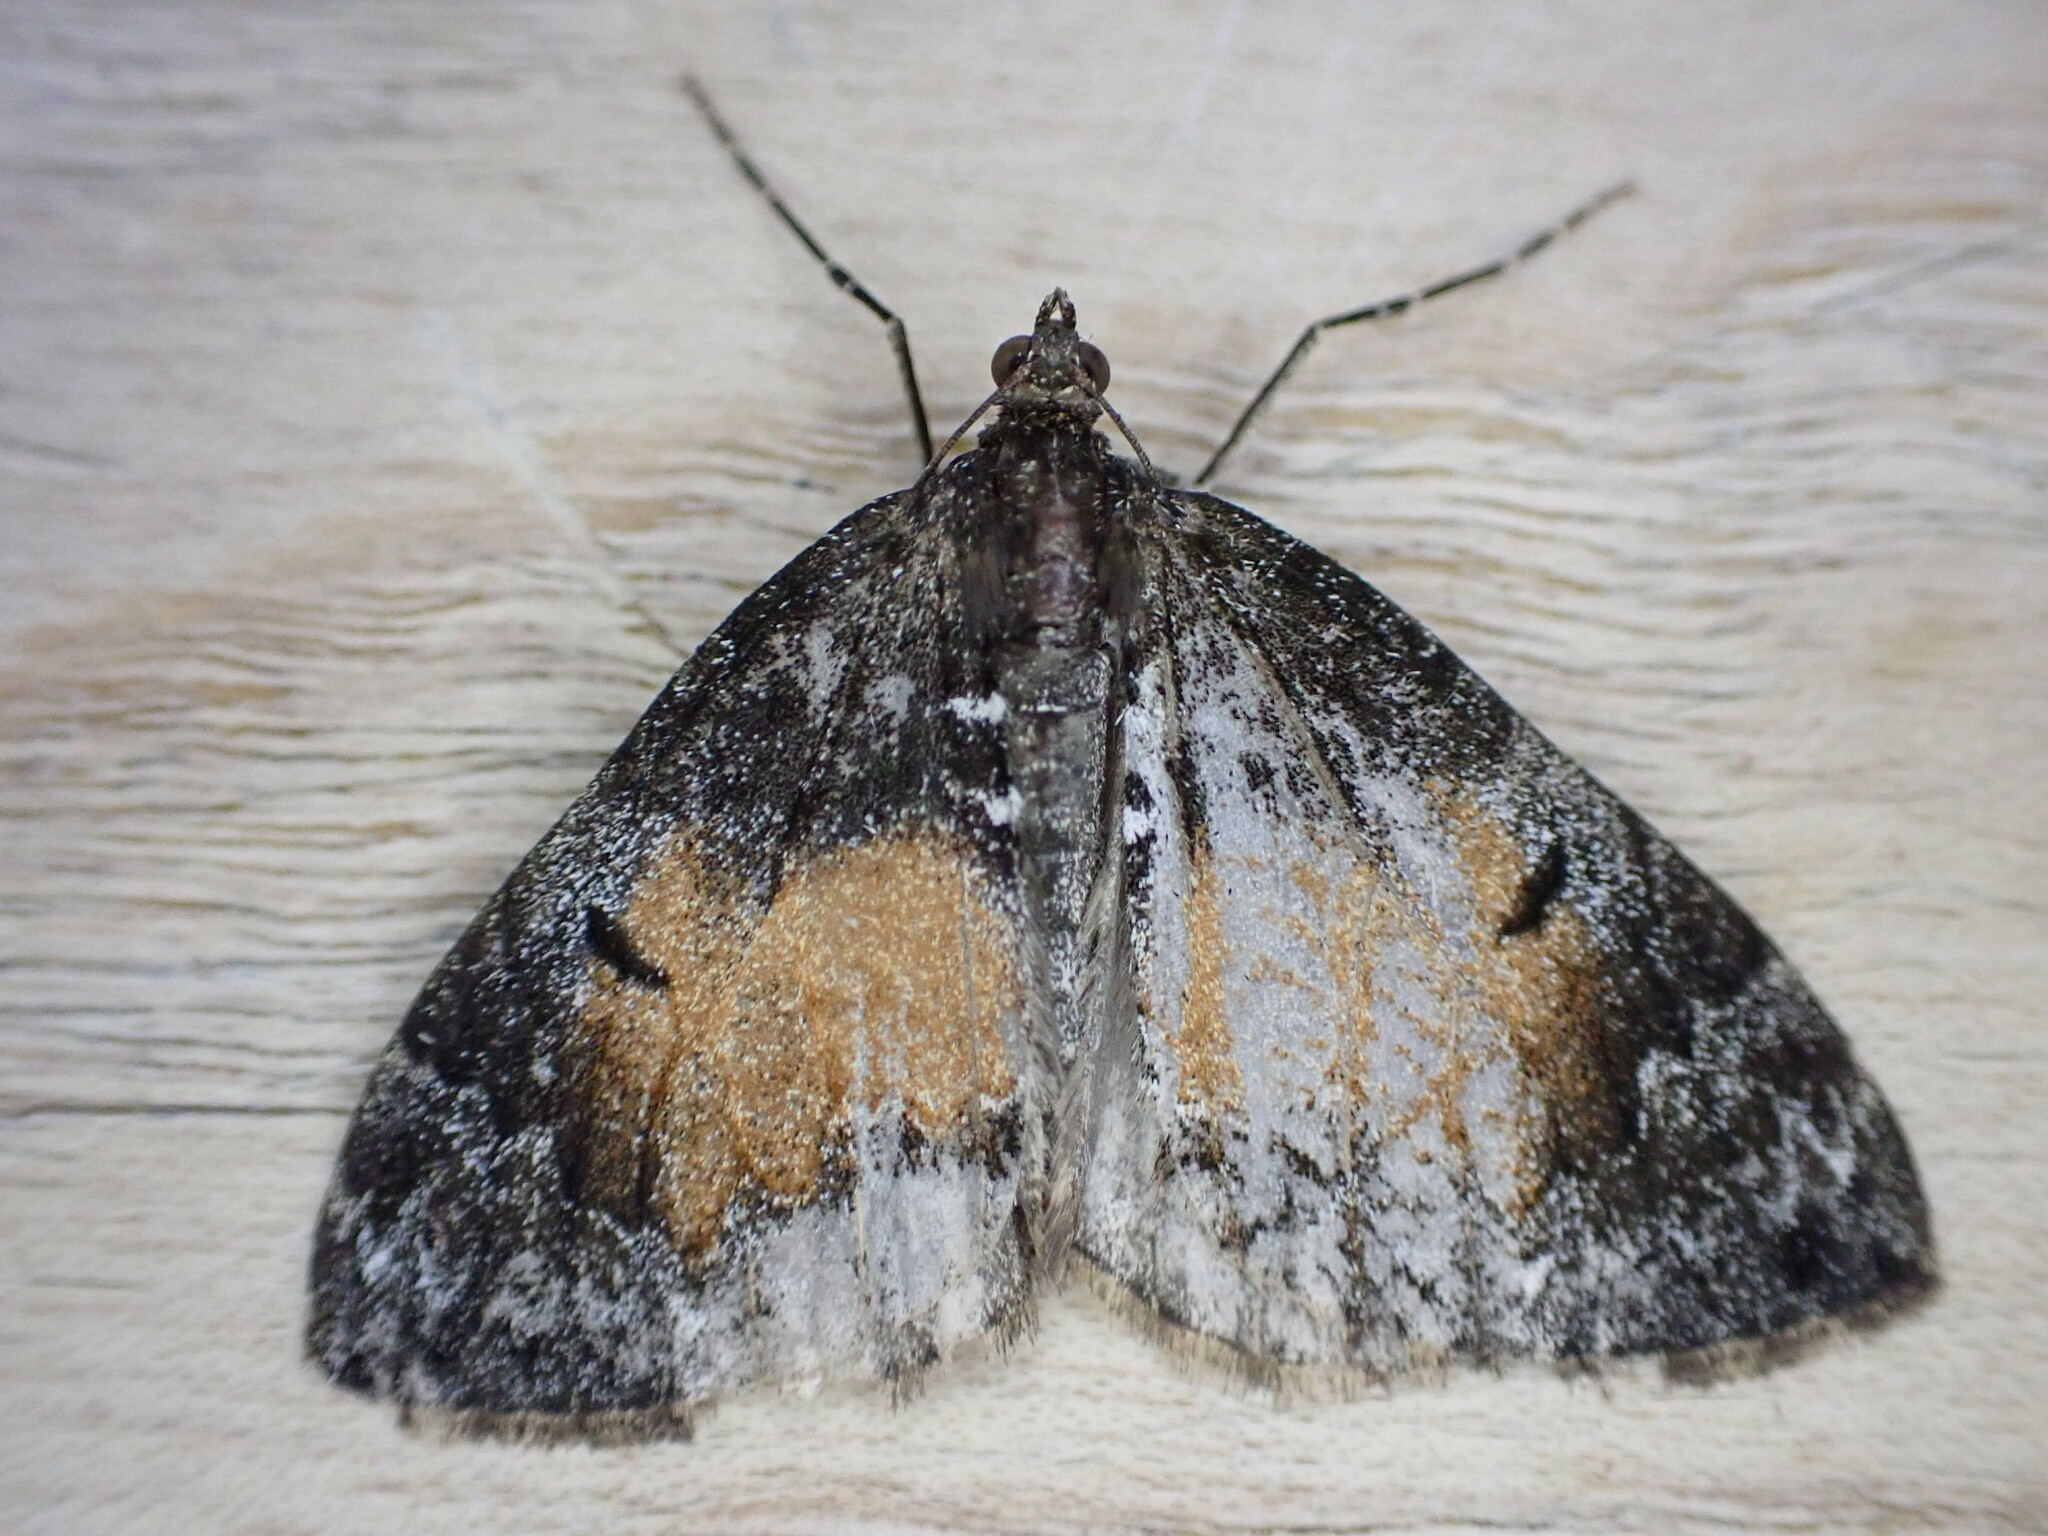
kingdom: Animalia
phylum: Arthropoda
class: Insecta
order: Lepidoptera
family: Geometridae
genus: Dysstroma
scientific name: Dysstroma truncata
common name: Common marbled carpet
